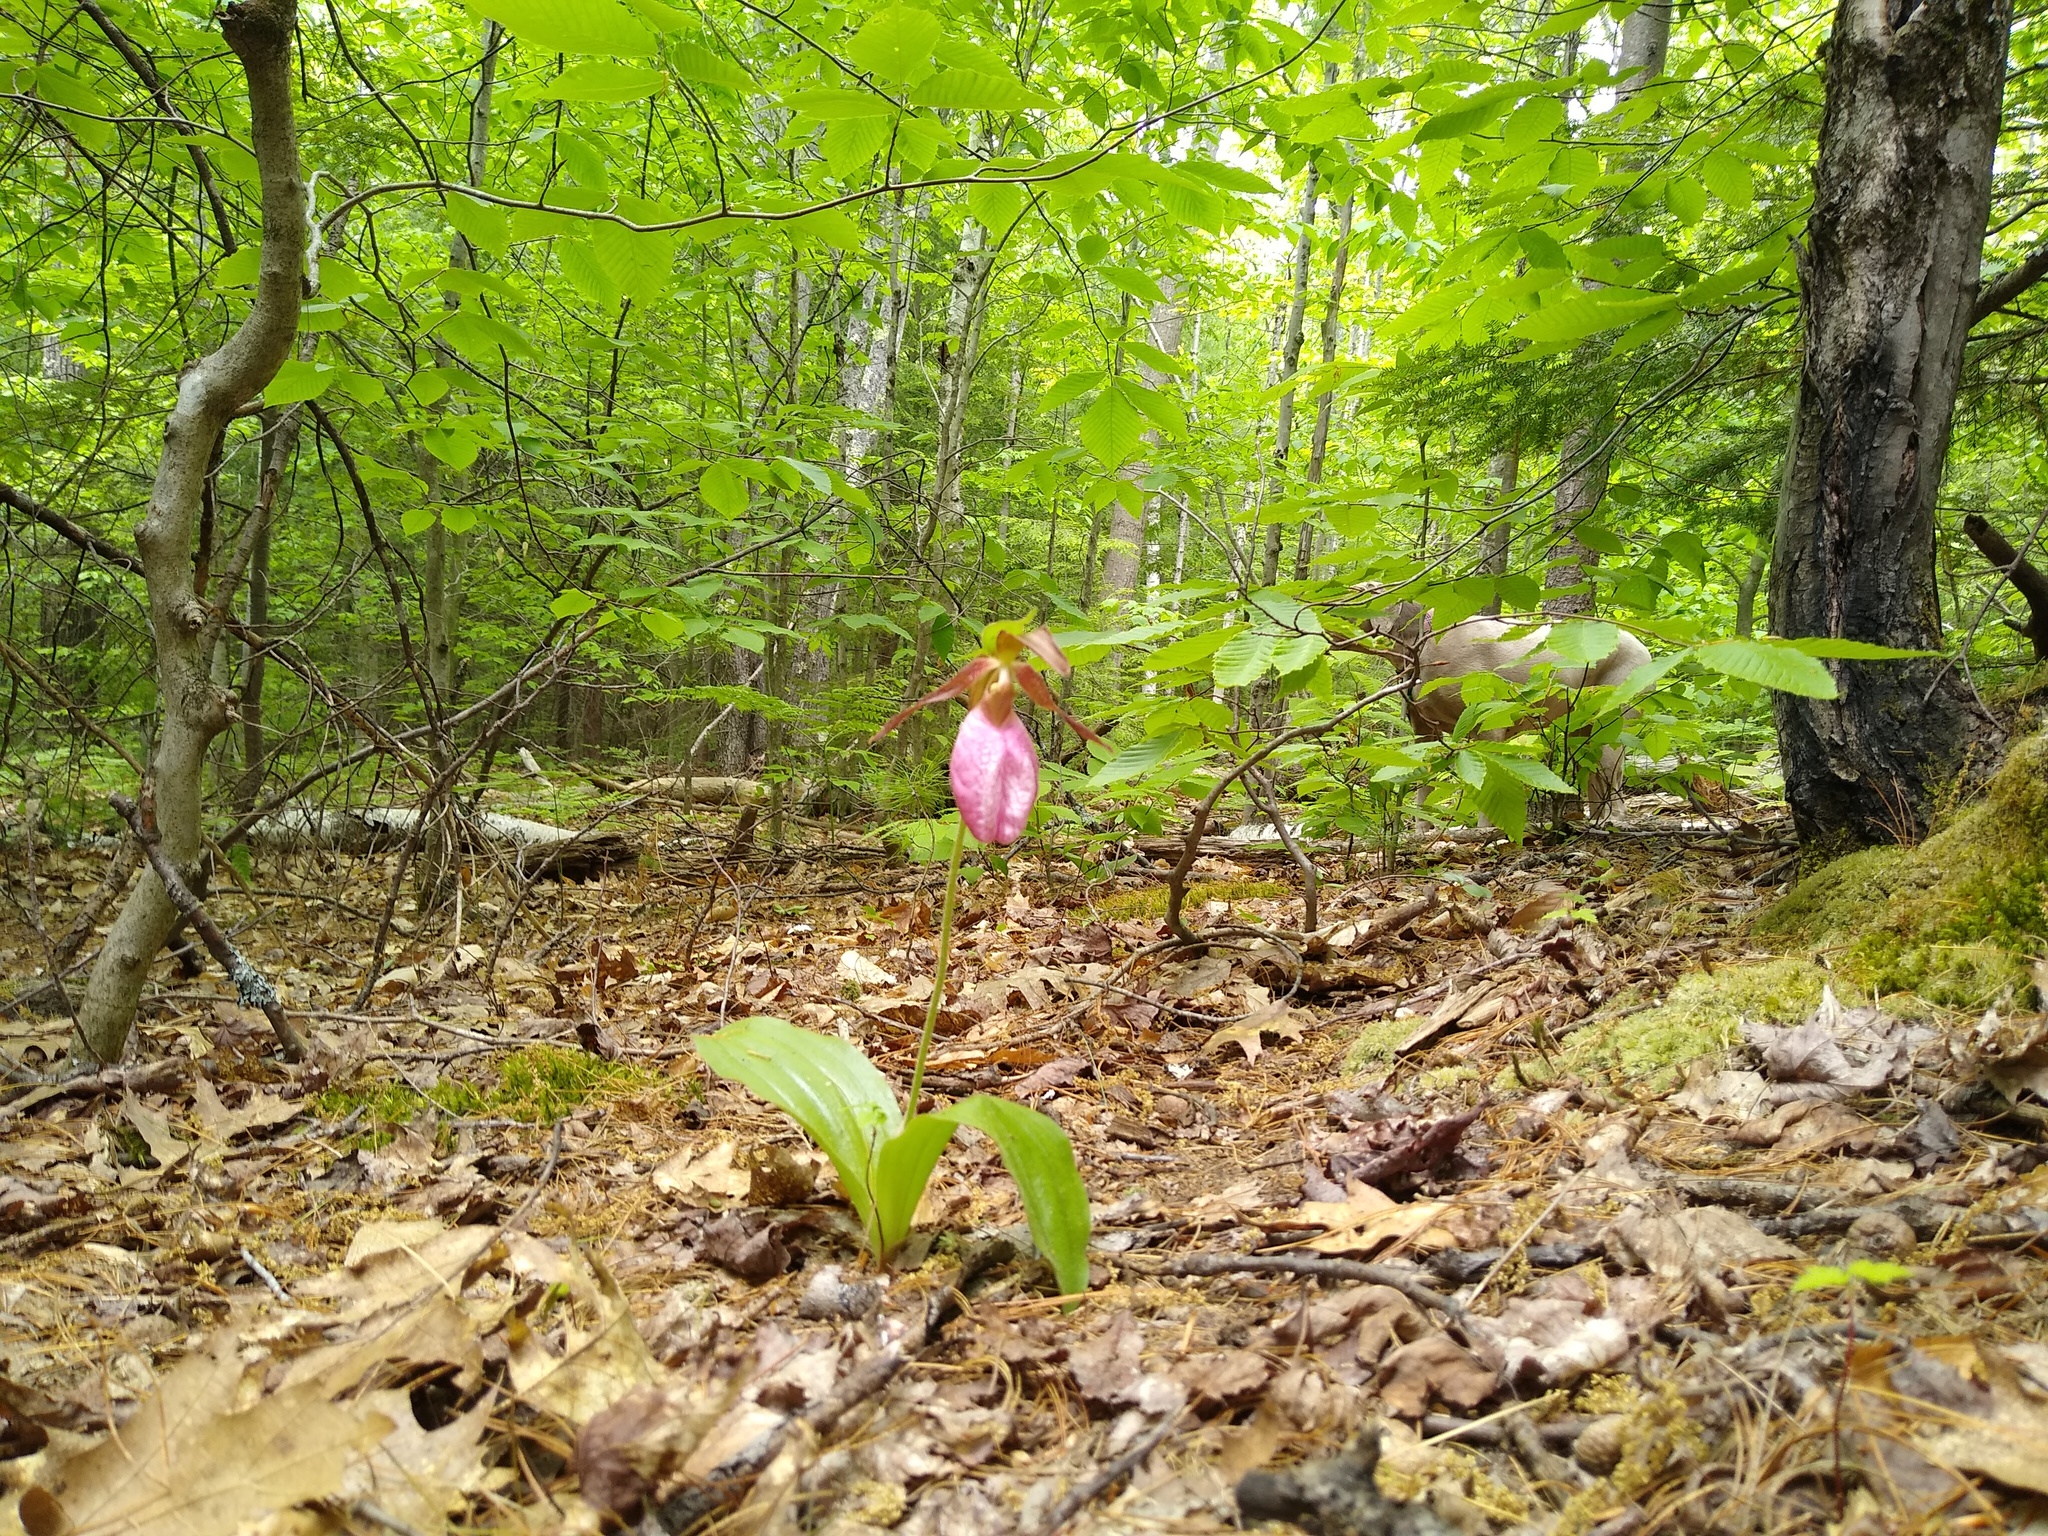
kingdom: Plantae
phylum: Tracheophyta
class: Liliopsida
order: Asparagales
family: Orchidaceae
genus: Cypripedium
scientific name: Cypripedium acaule
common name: Pink lady's-slipper
